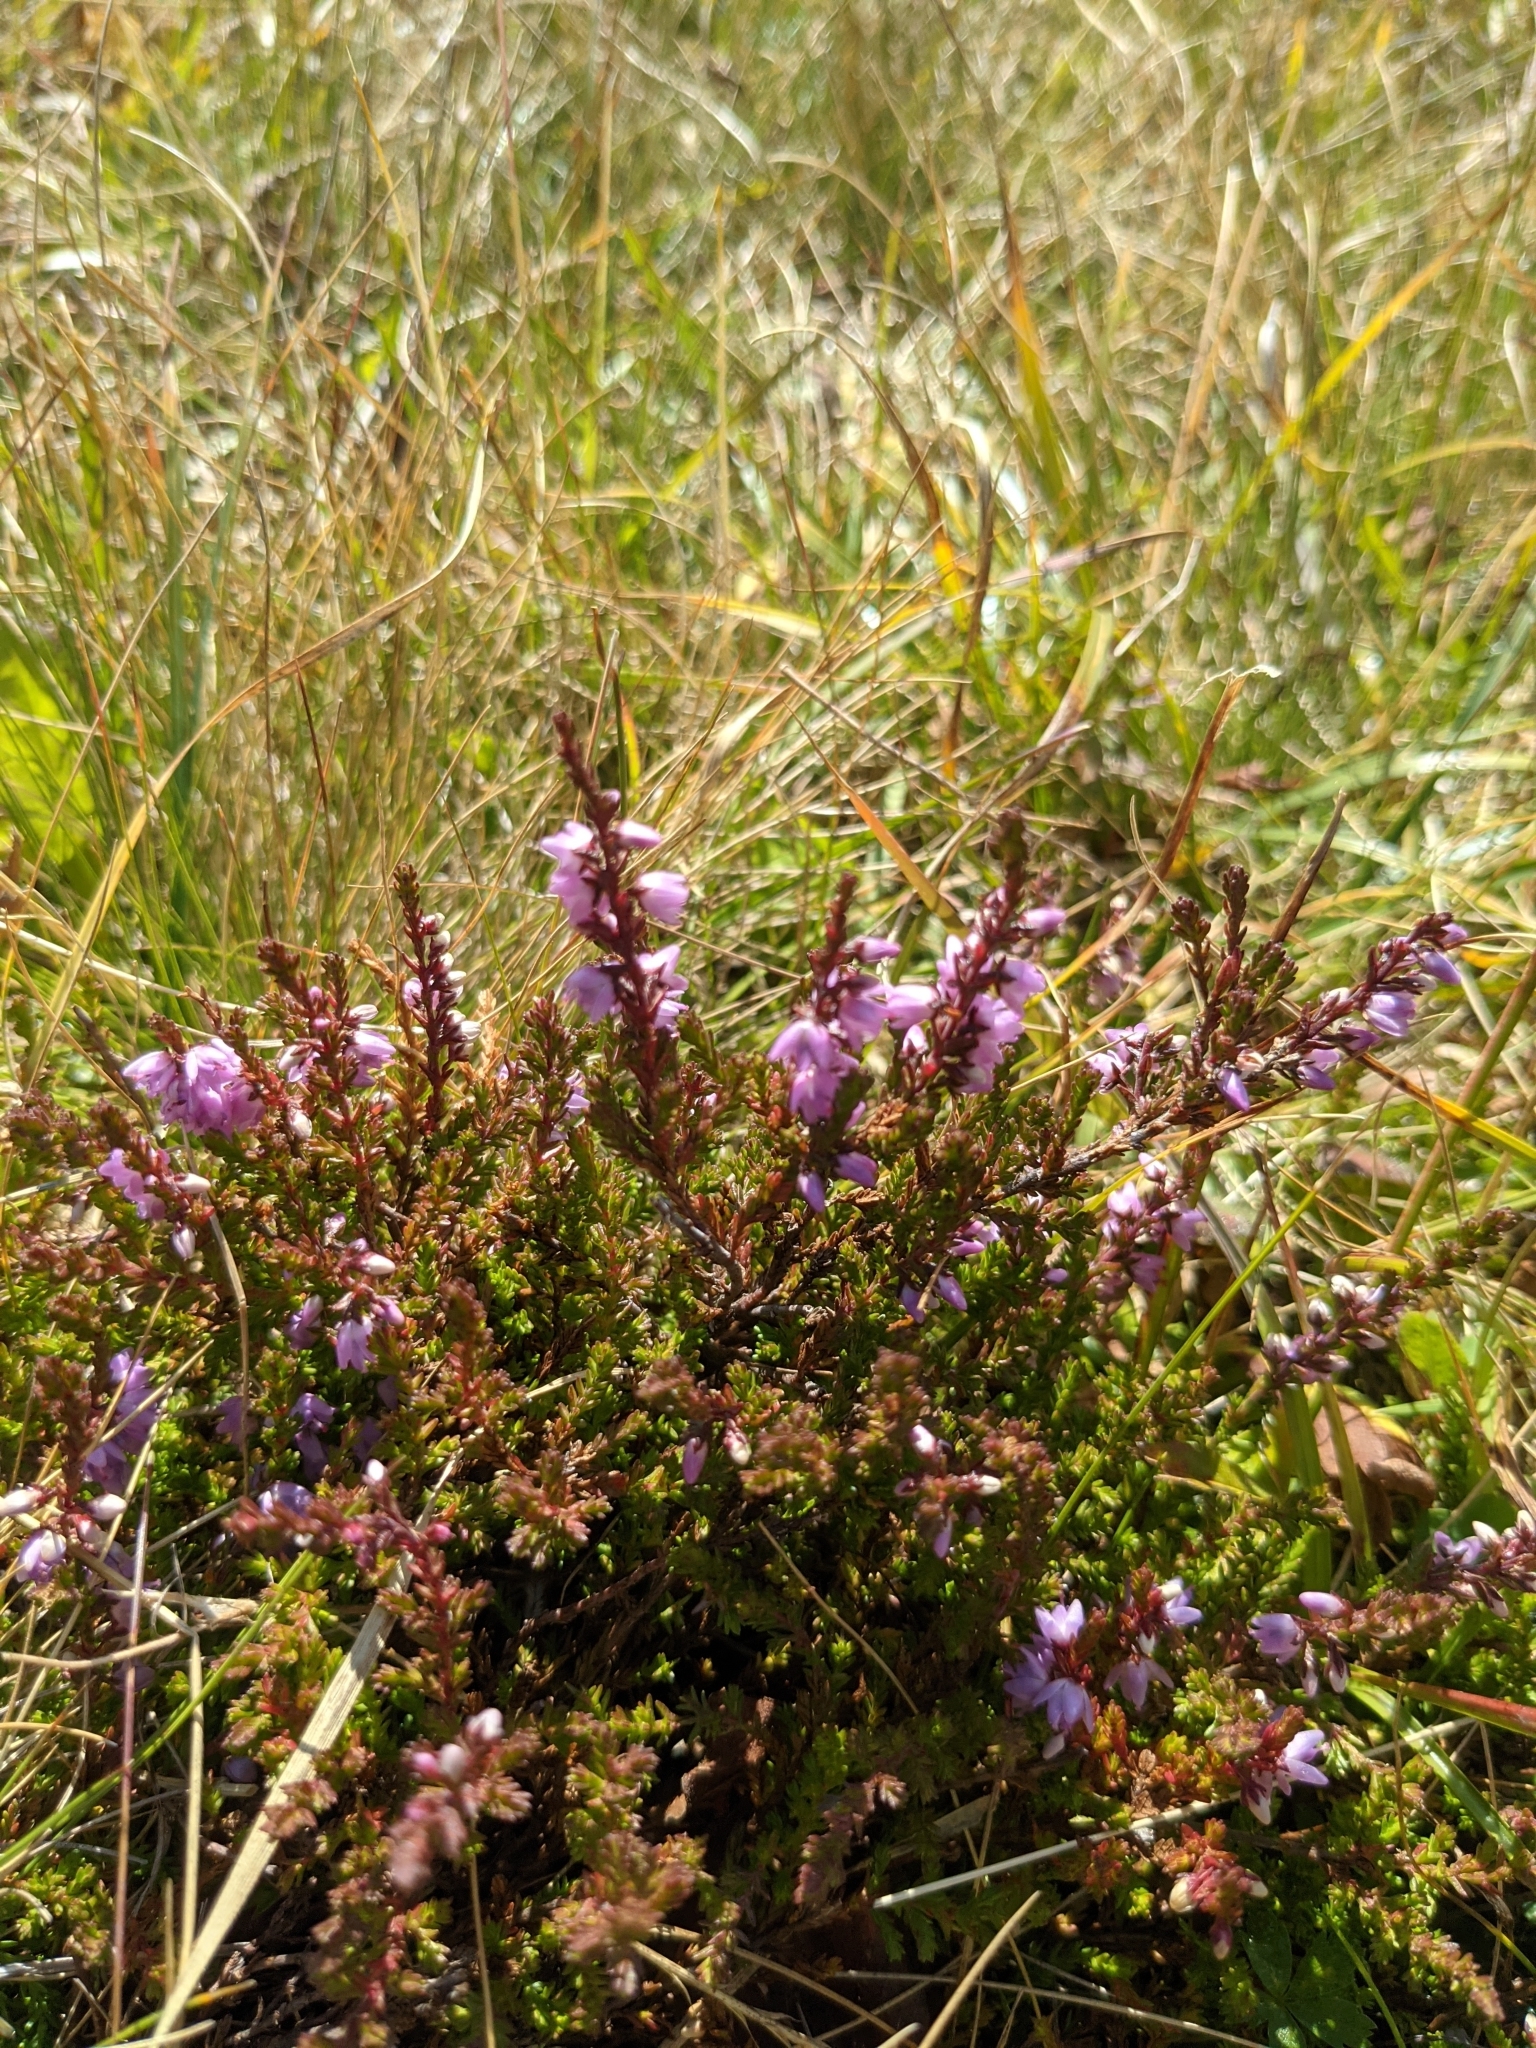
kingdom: Plantae
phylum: Tracheophyta
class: Magnoliopsida
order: Ericales
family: Ericaceae
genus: Calluna
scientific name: Calluna vulgaris
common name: Heather
